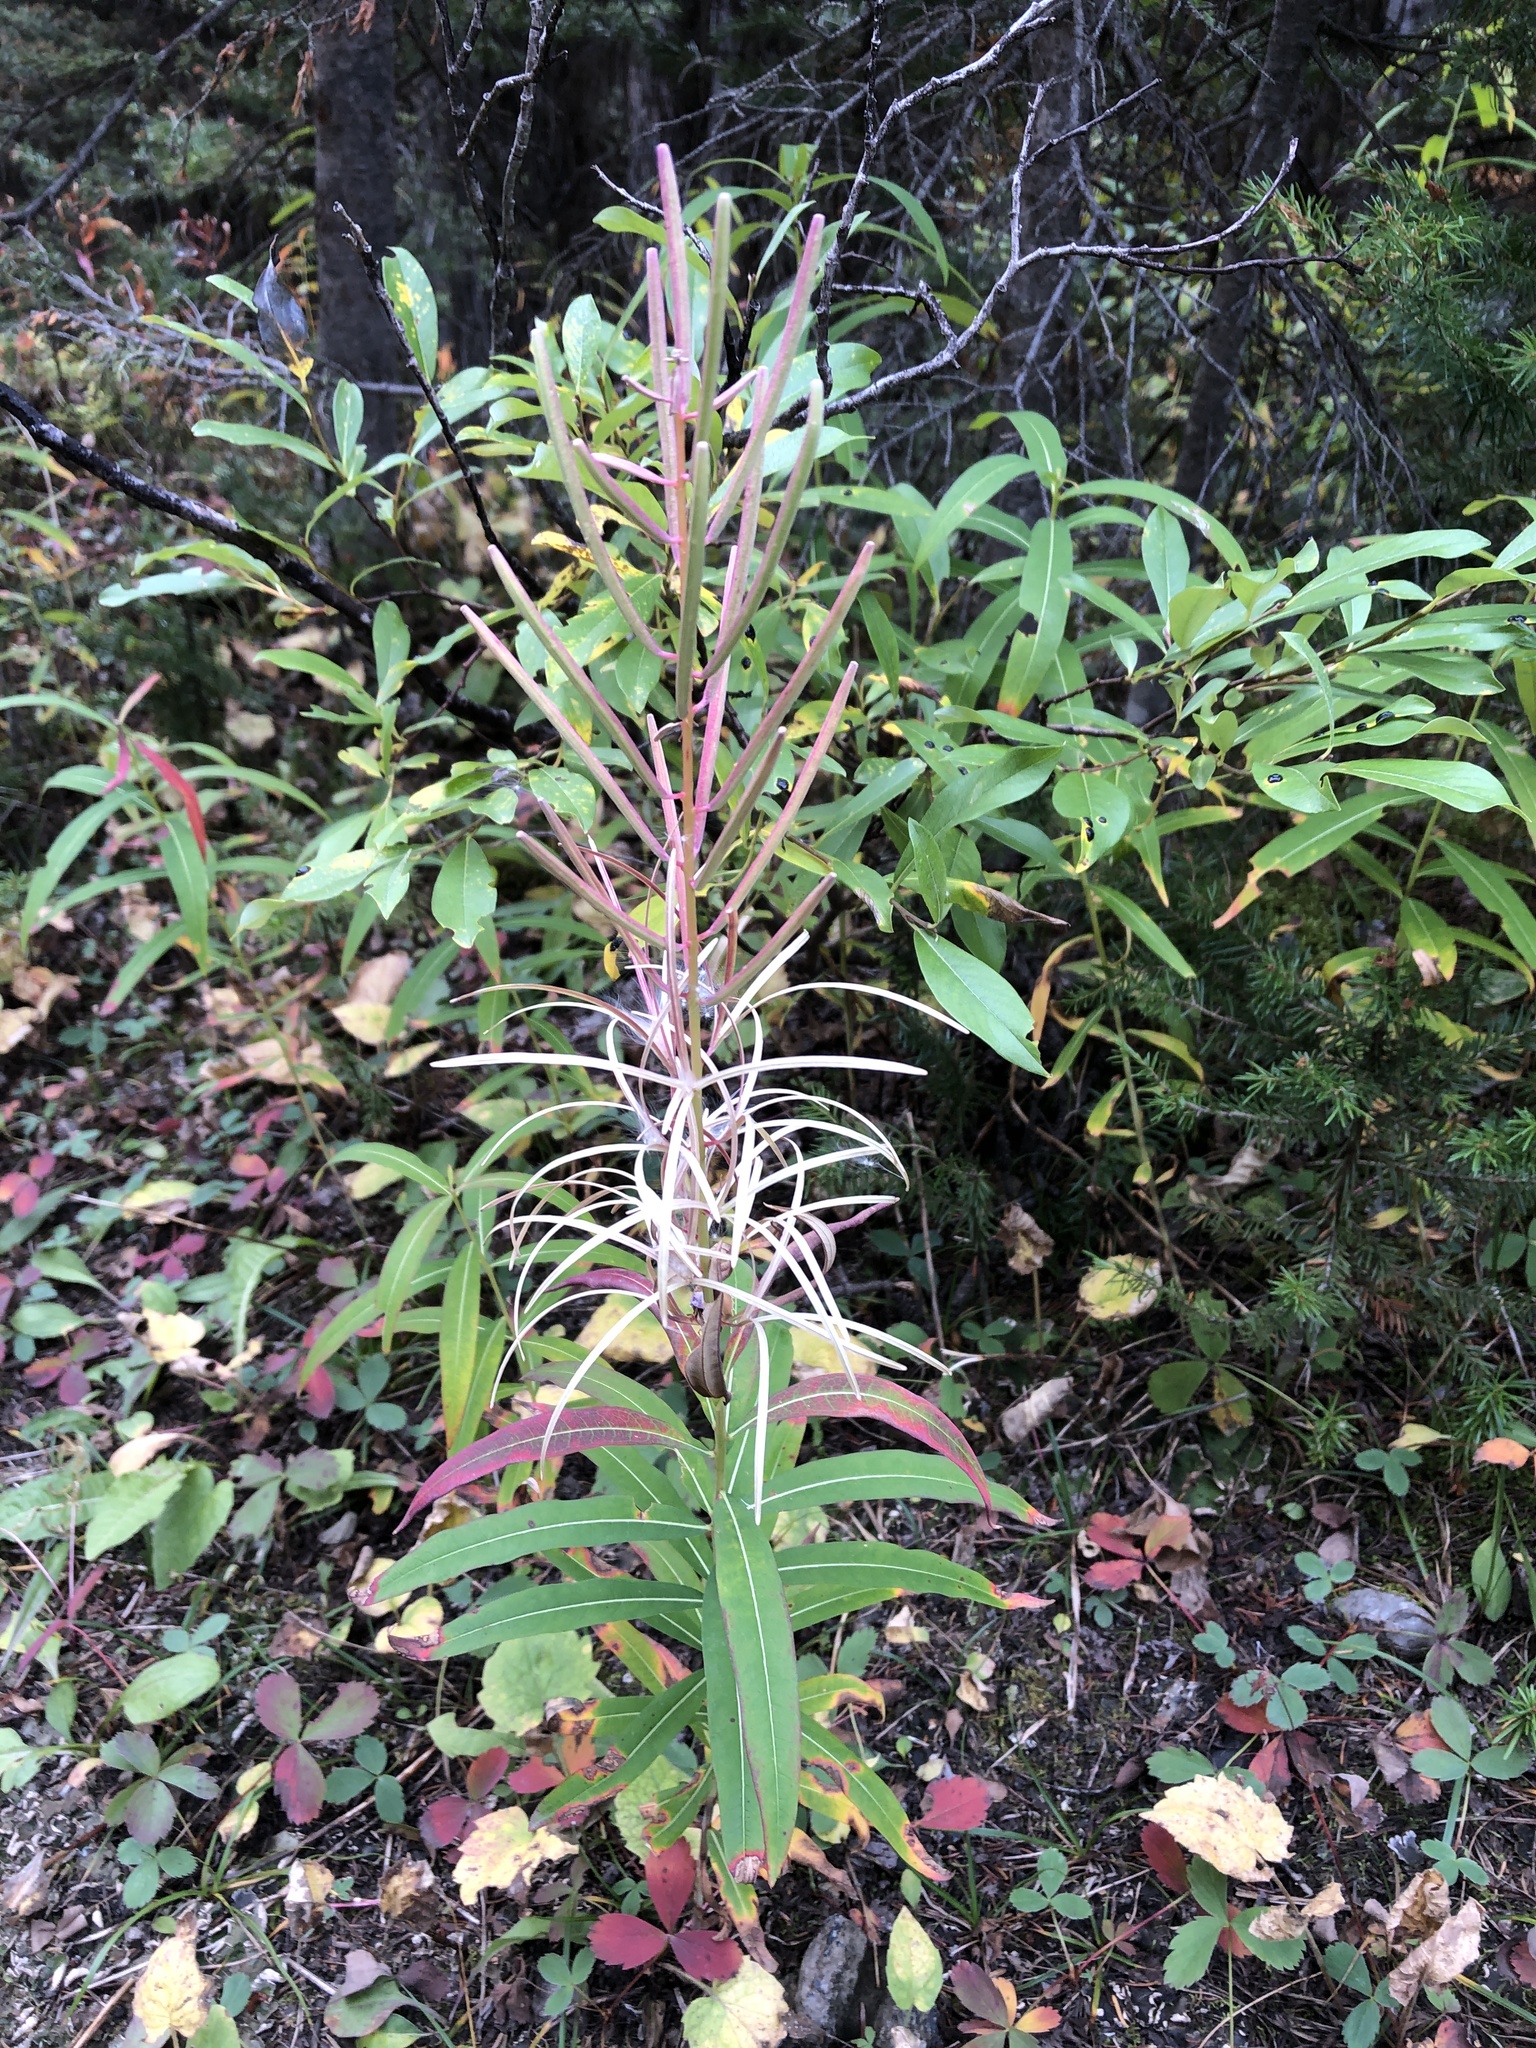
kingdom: Plantae
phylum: Tracheophyta
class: Magnoliopsida
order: Myrtales
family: Onagraceae
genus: Chamaenerion
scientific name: Chamaenerion angustifolium
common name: Fireweed
